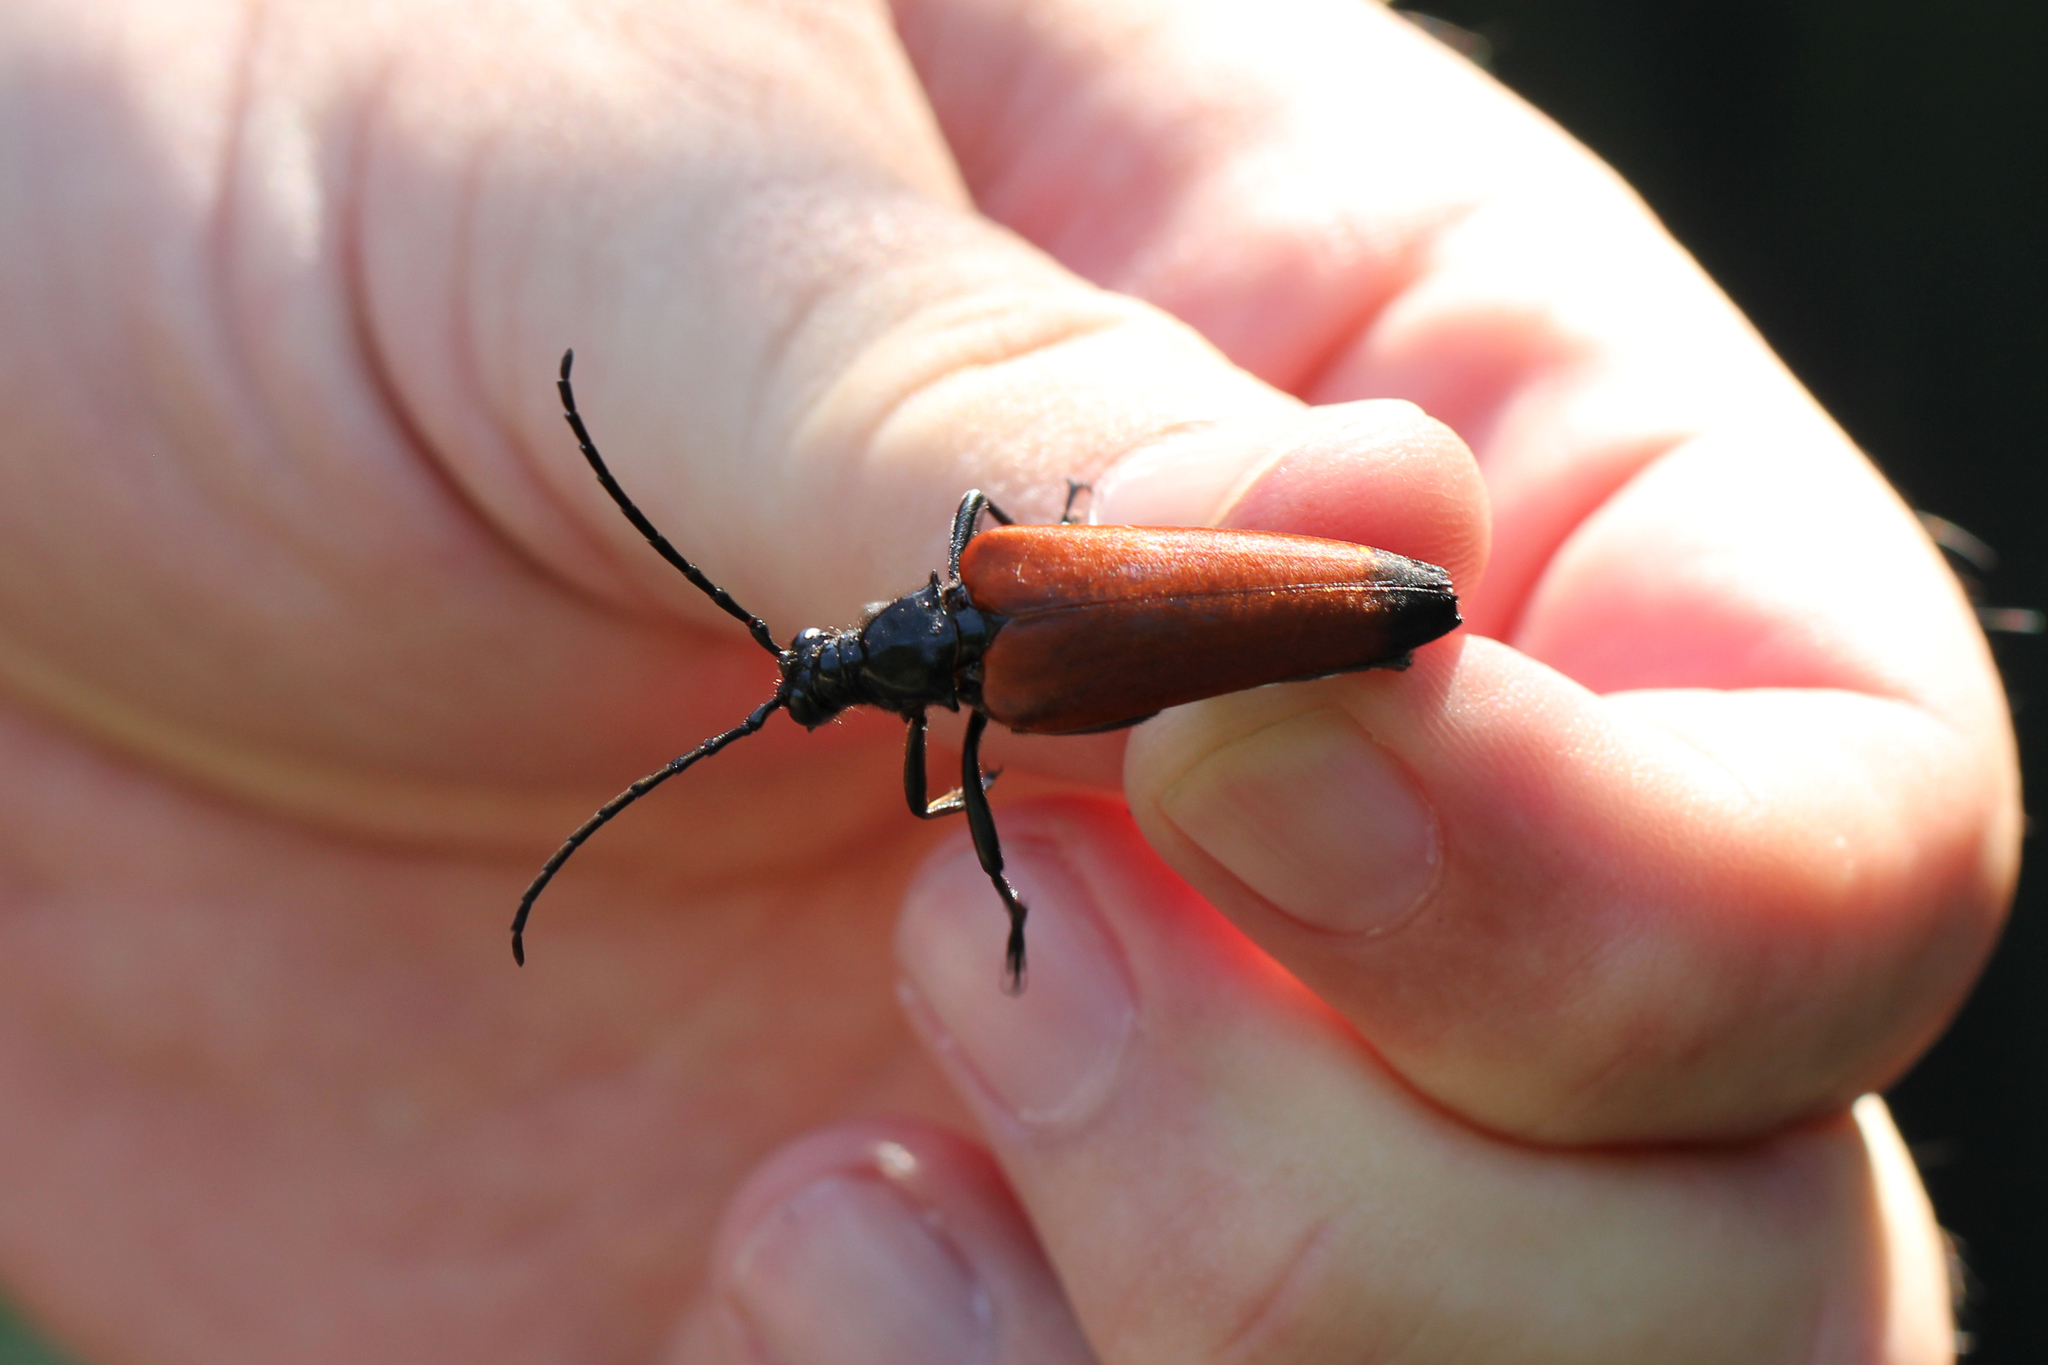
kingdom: Animalia
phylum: Arthropoda
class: Insecta
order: Coleoptera
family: Cerambycidae
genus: Stenelytrana
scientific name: Stenelytrana emarginata
